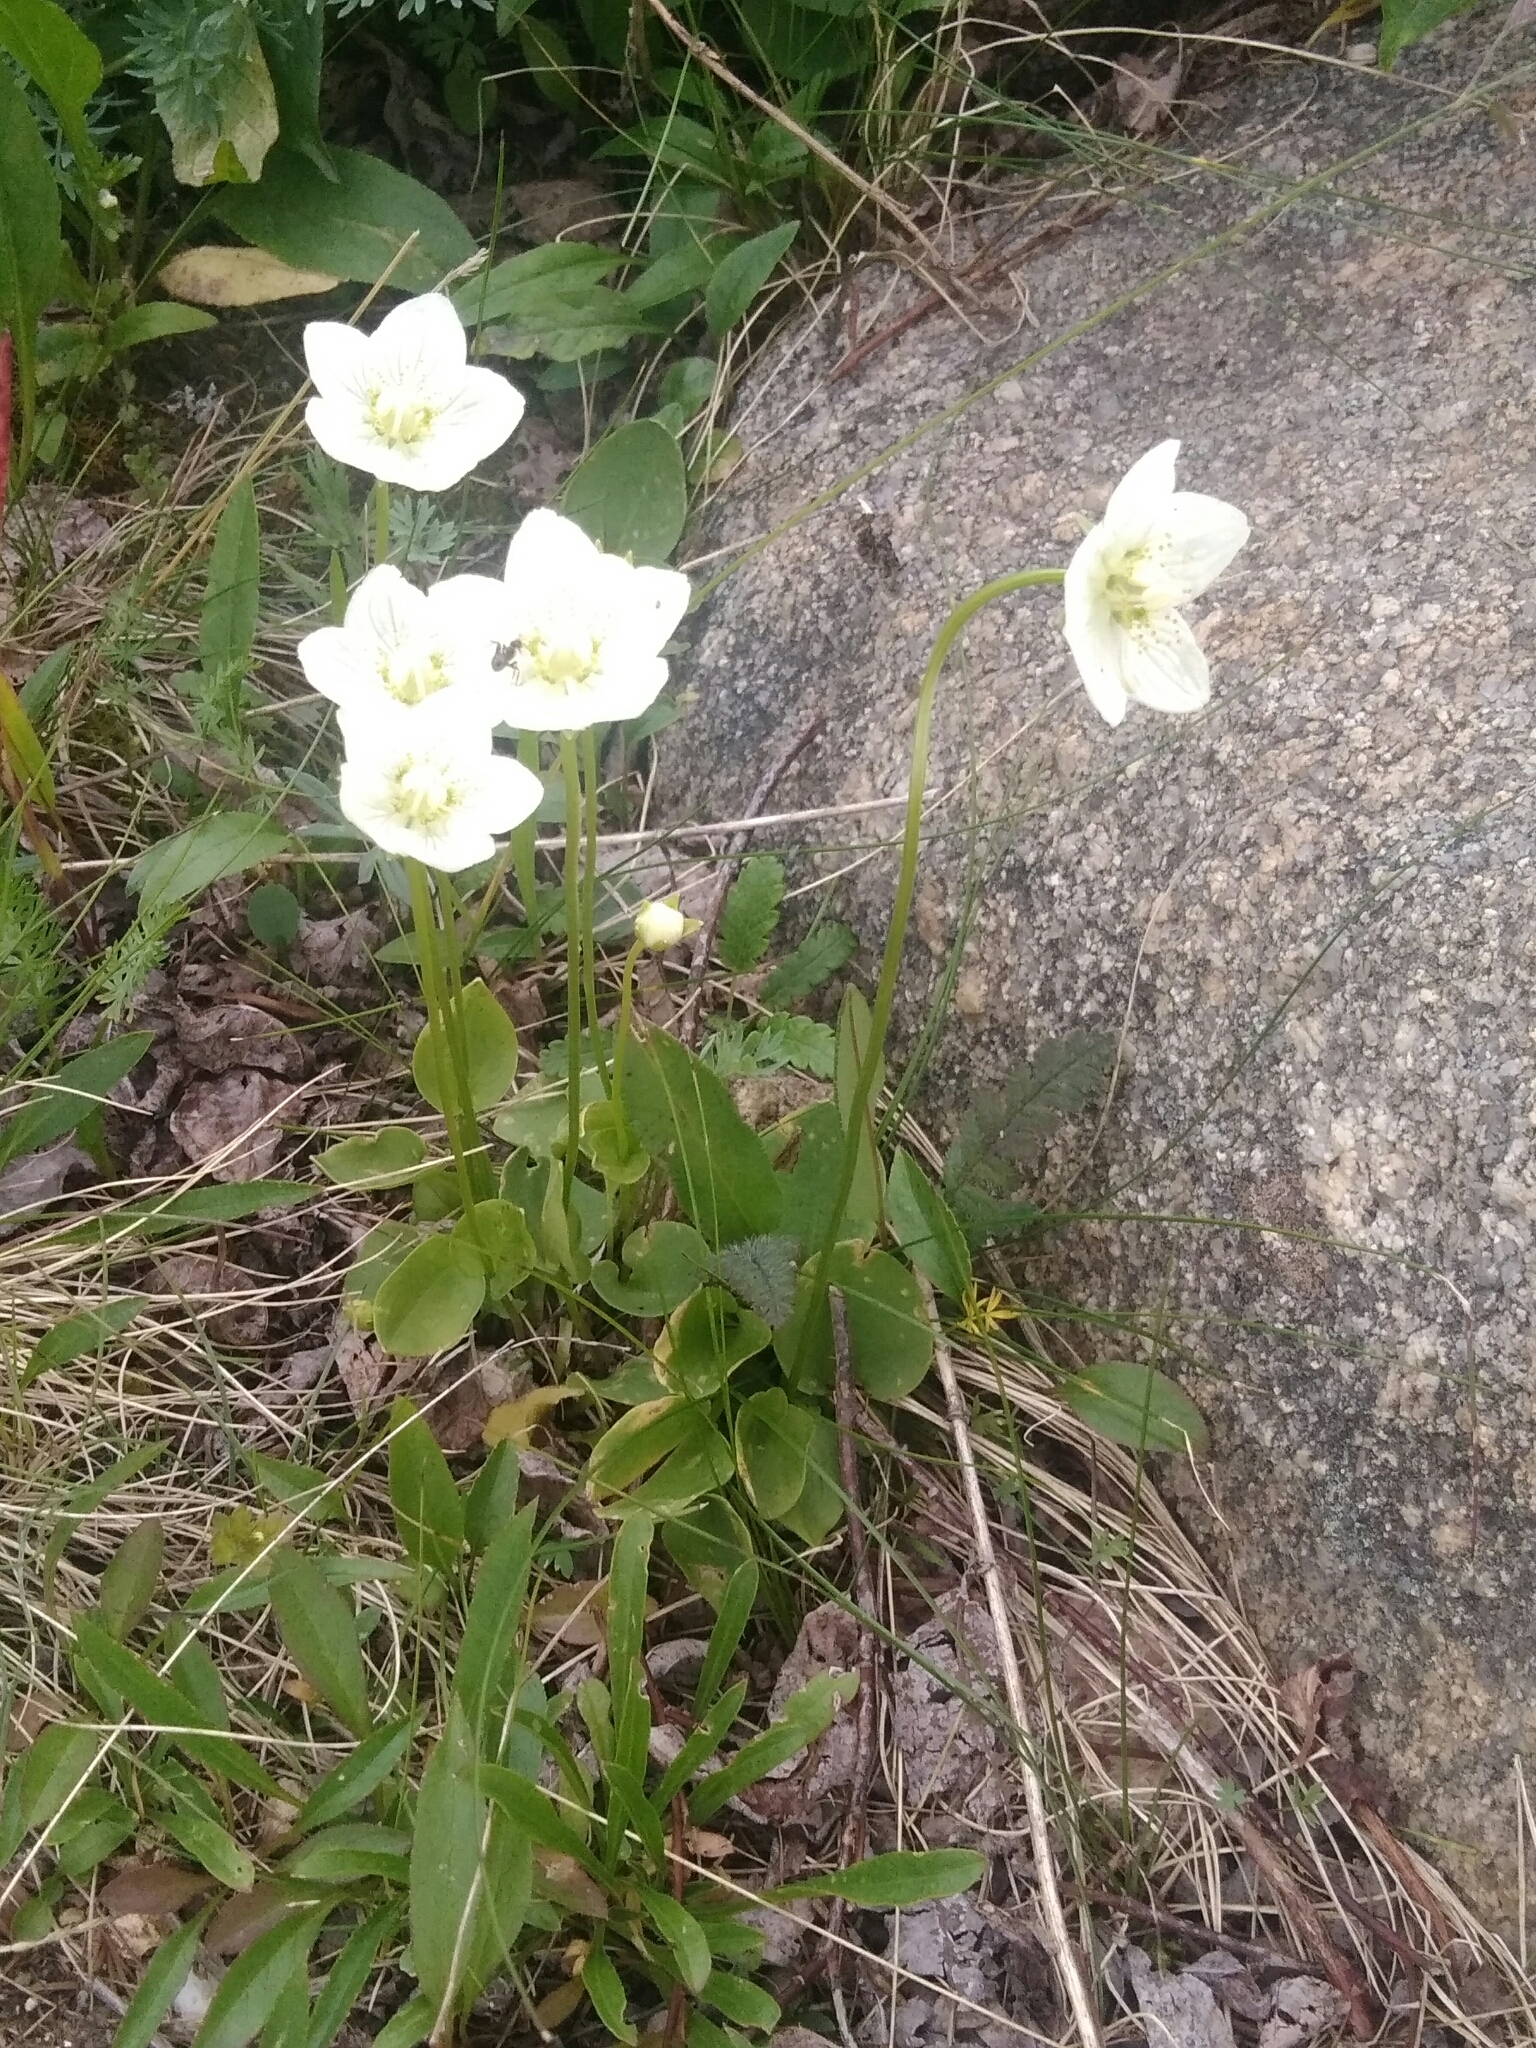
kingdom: Plantae
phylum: Tracheophyta
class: Magnoliopsida
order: Celastrales
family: Parnassiaceae
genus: Parnassia
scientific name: Parnassia palustris
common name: Grass-of-parnassus
